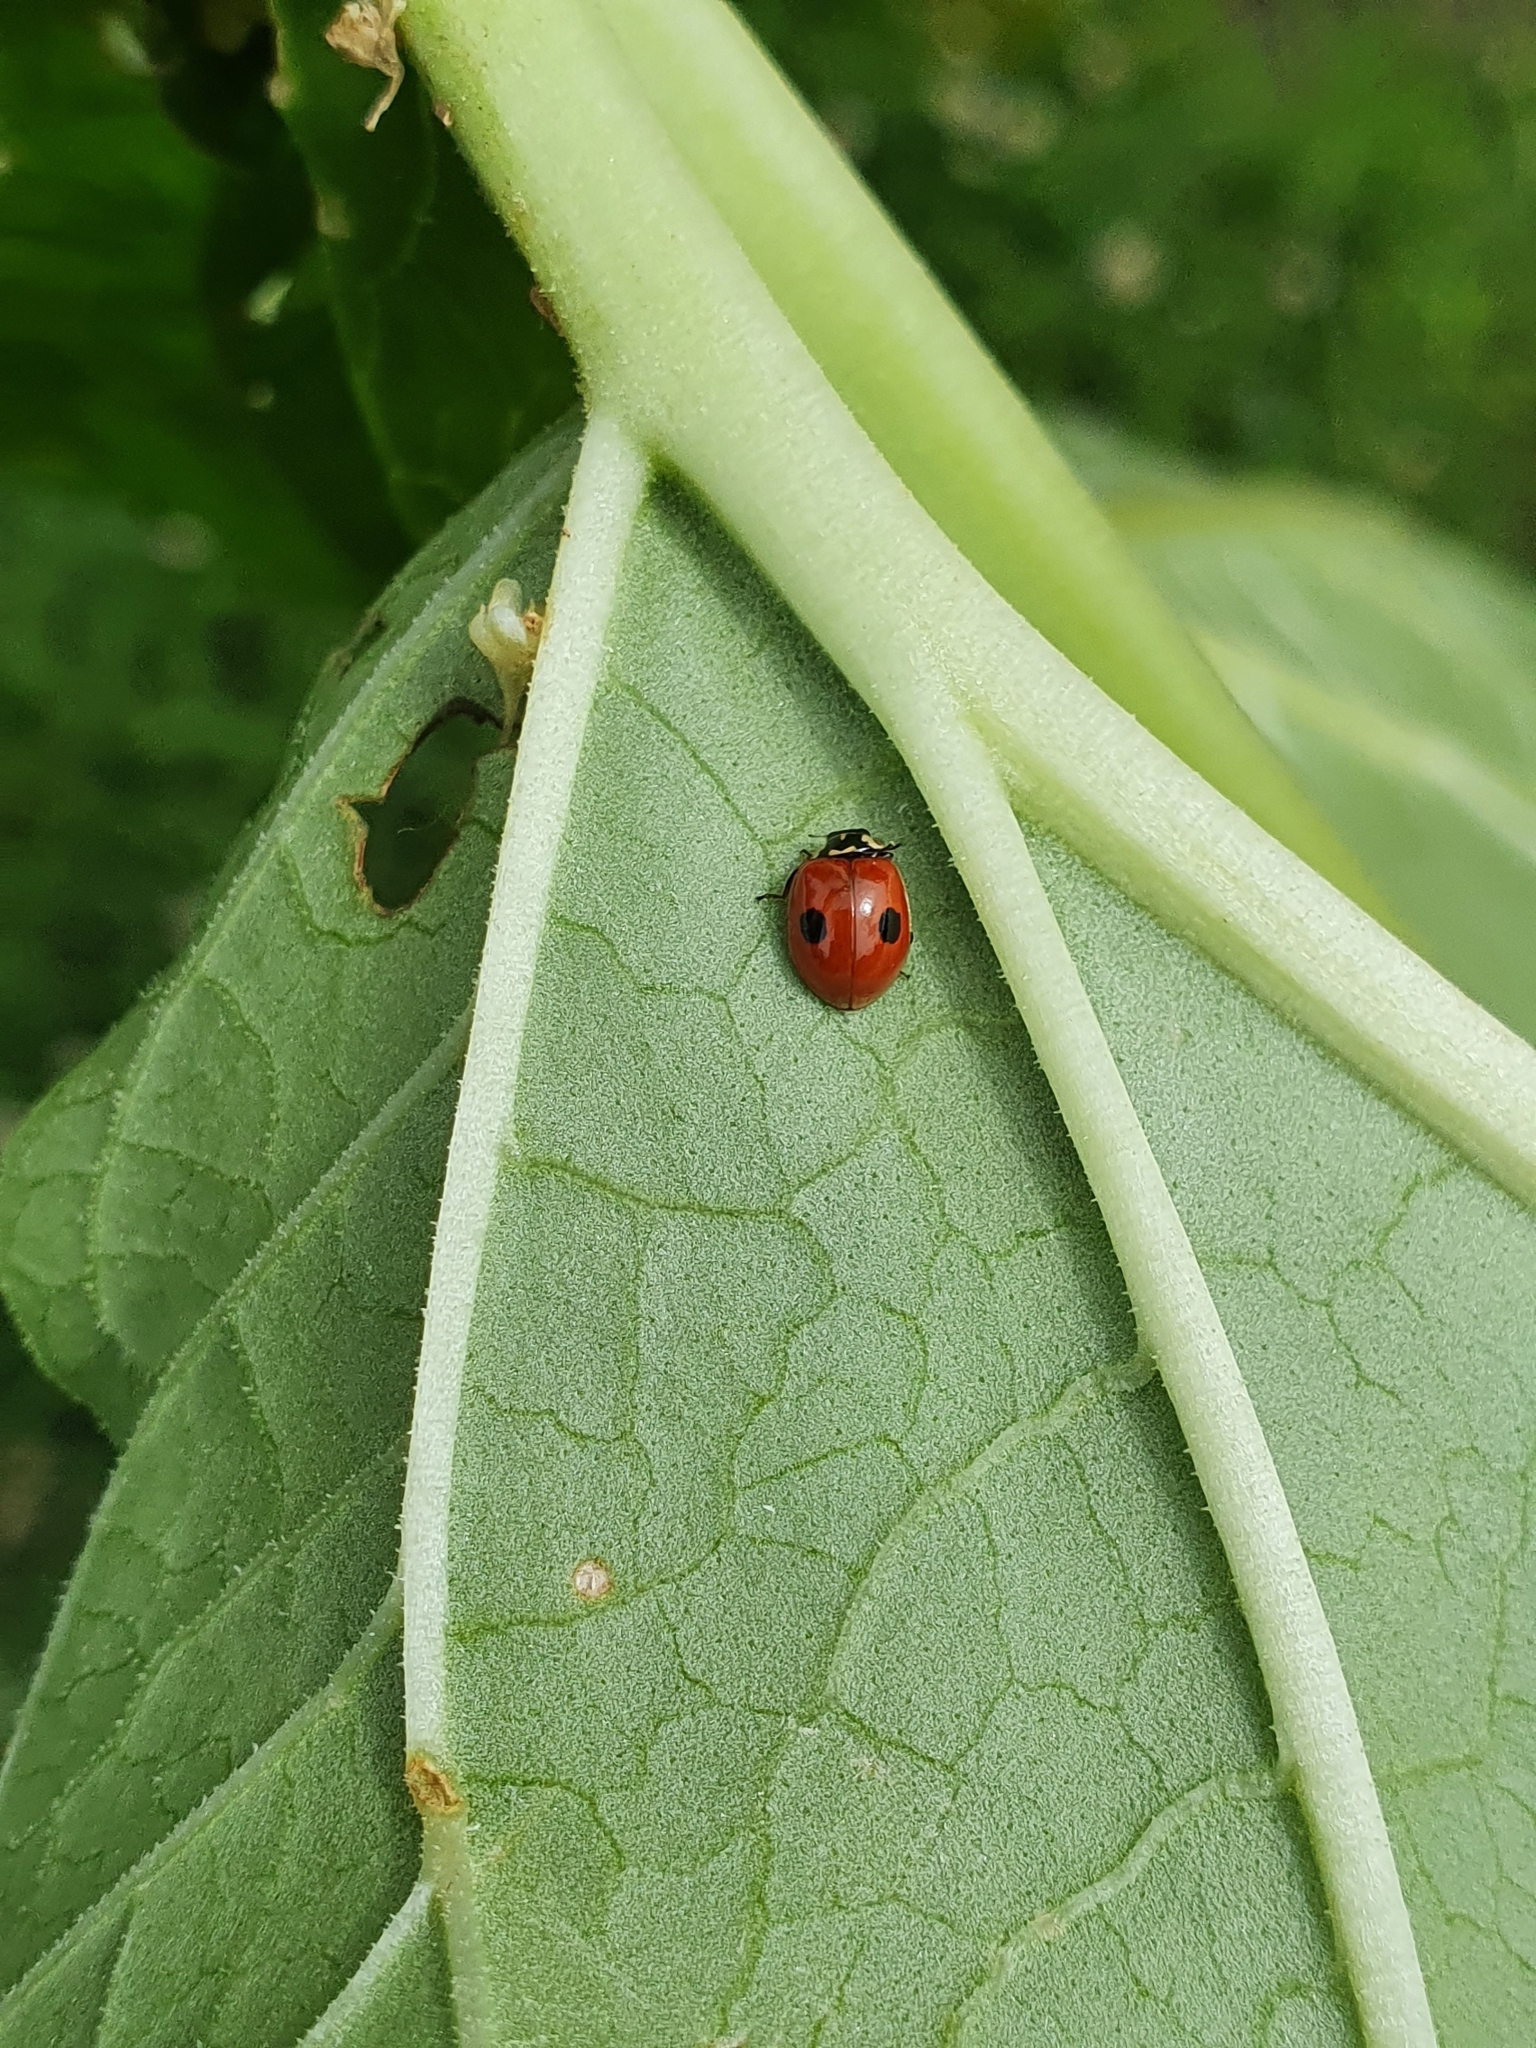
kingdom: Animalia
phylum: Arthropoda
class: Insecta
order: Coleoptera
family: Coccinellidae
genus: Adalia
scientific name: Adalia bipunctata
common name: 2-spot ladybird
